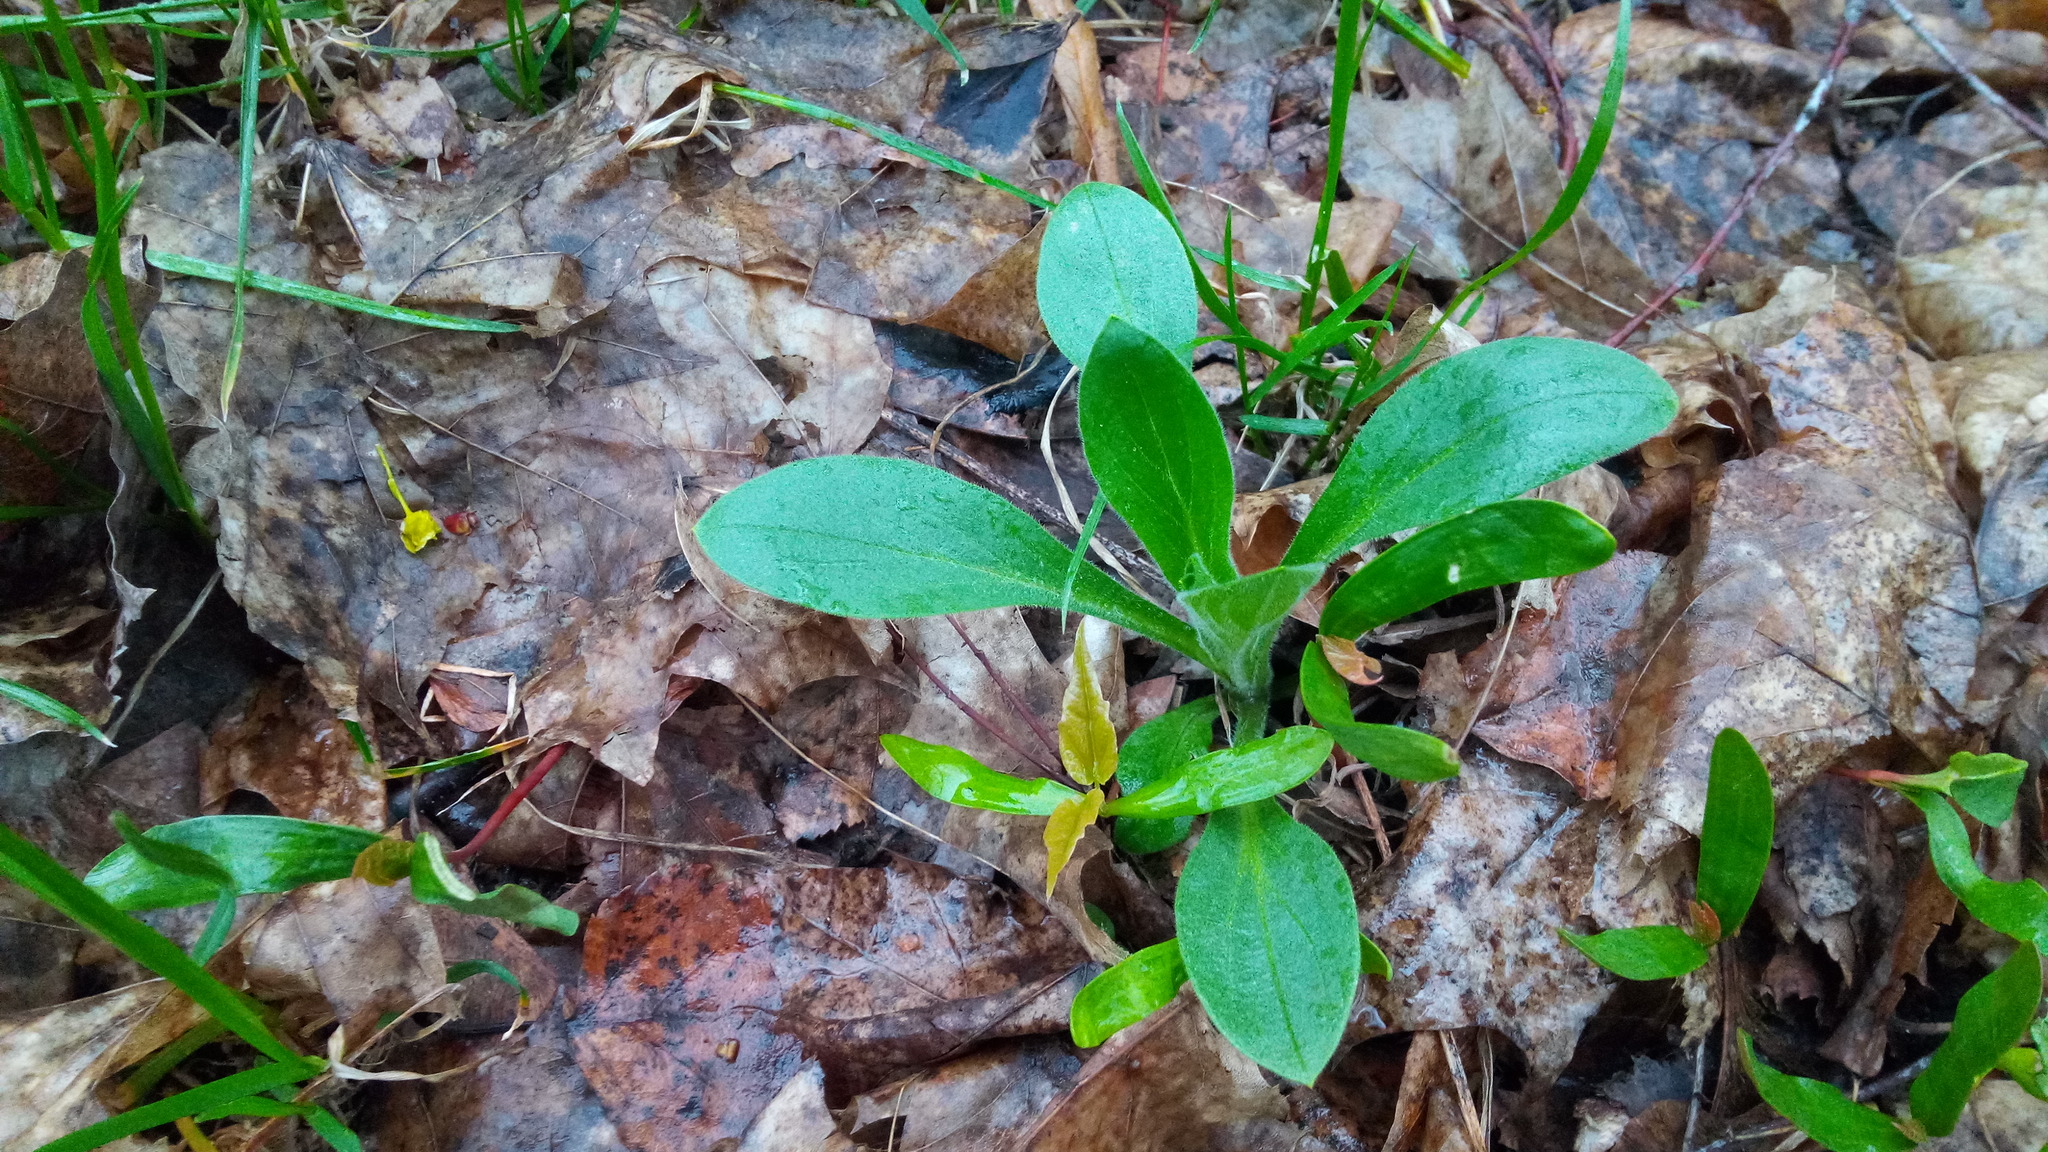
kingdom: Plantae
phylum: Tracheophyta
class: Magnoliopsida
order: Caryophyllales
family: Caryophyllaceae
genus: Silene
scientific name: Silene latifolia
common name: White campion
